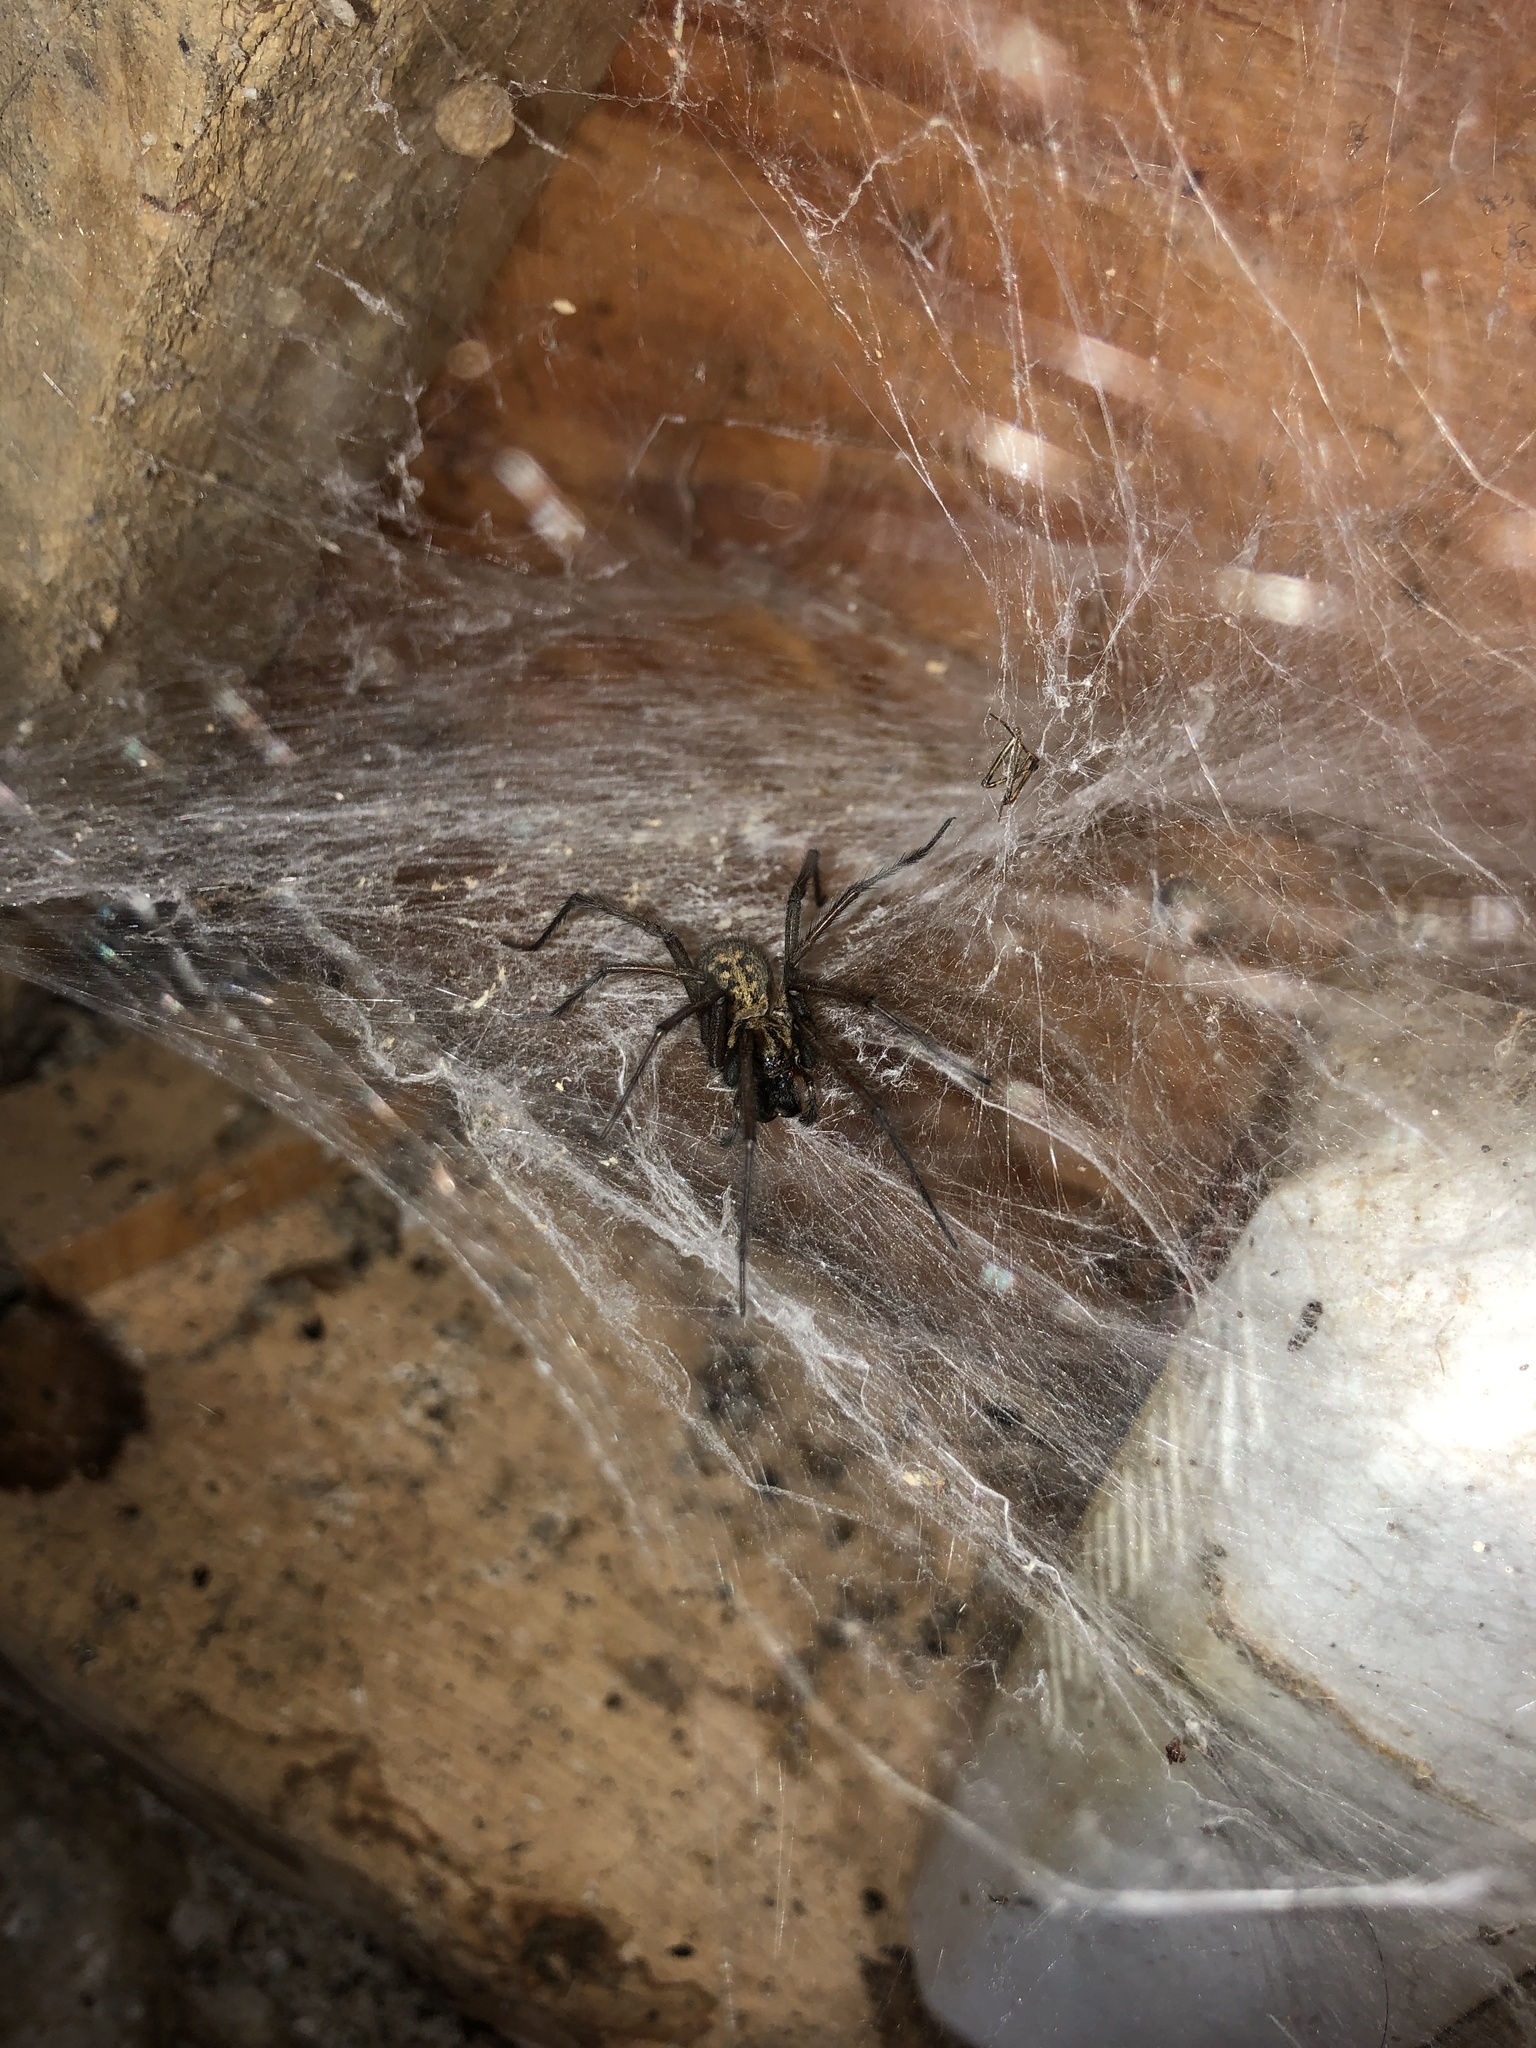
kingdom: Animalia
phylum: Arthropoda
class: Arachnida
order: Araneae
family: Agelenidae
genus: Eratigena
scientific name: Eratigena duellica
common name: Giant house spider
